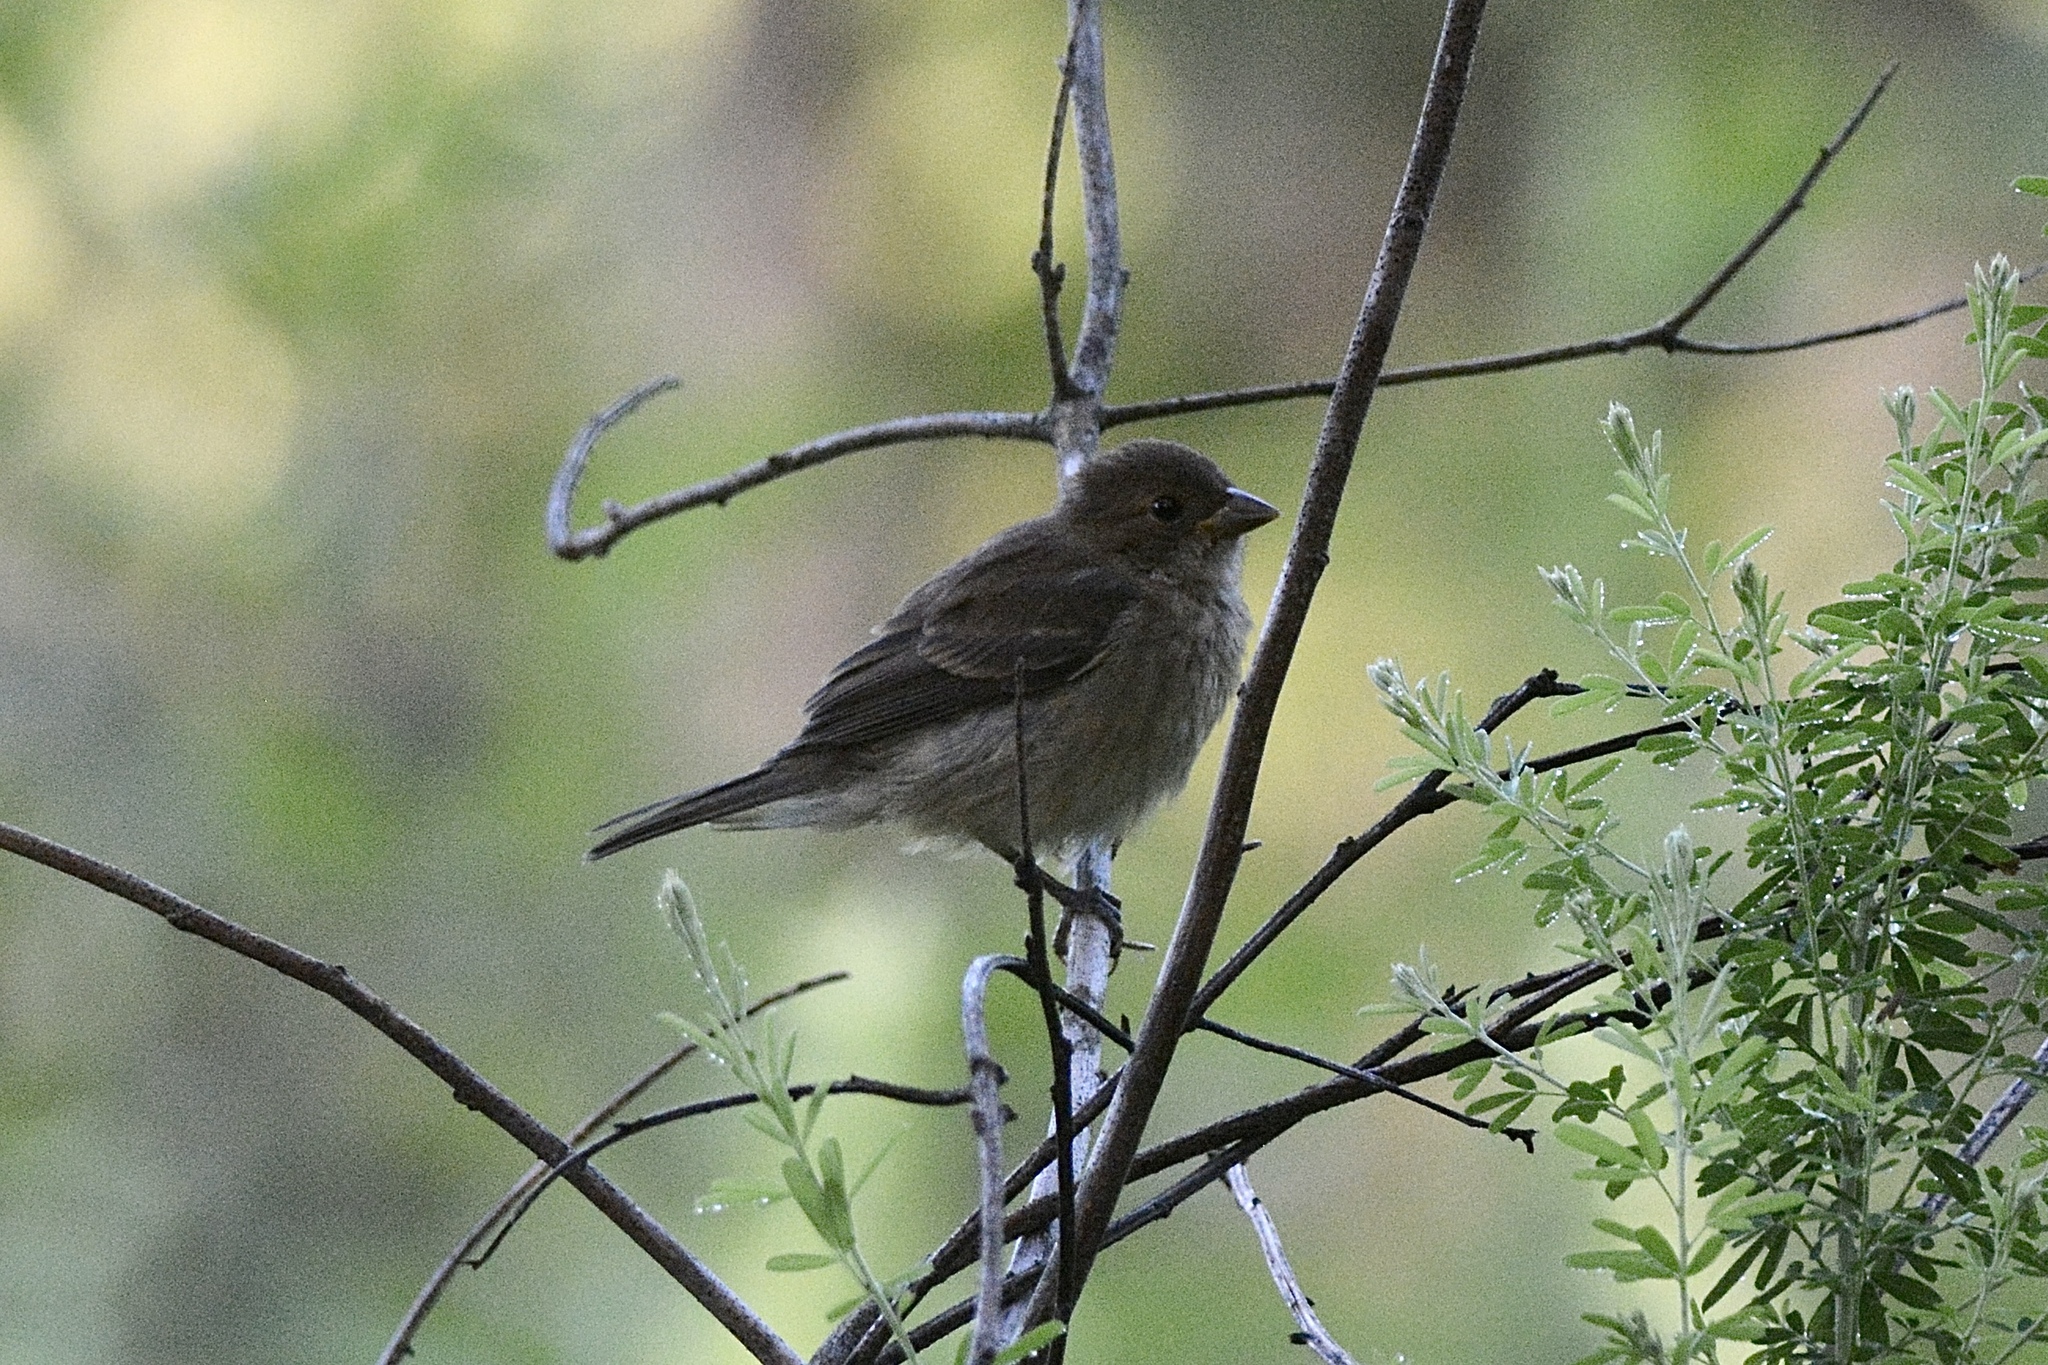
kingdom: Animalia
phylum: Chordata
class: Aves
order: Passeriformes
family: Cardinalidae
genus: Passerina
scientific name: Passerina cyanea
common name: Indigo bunting
